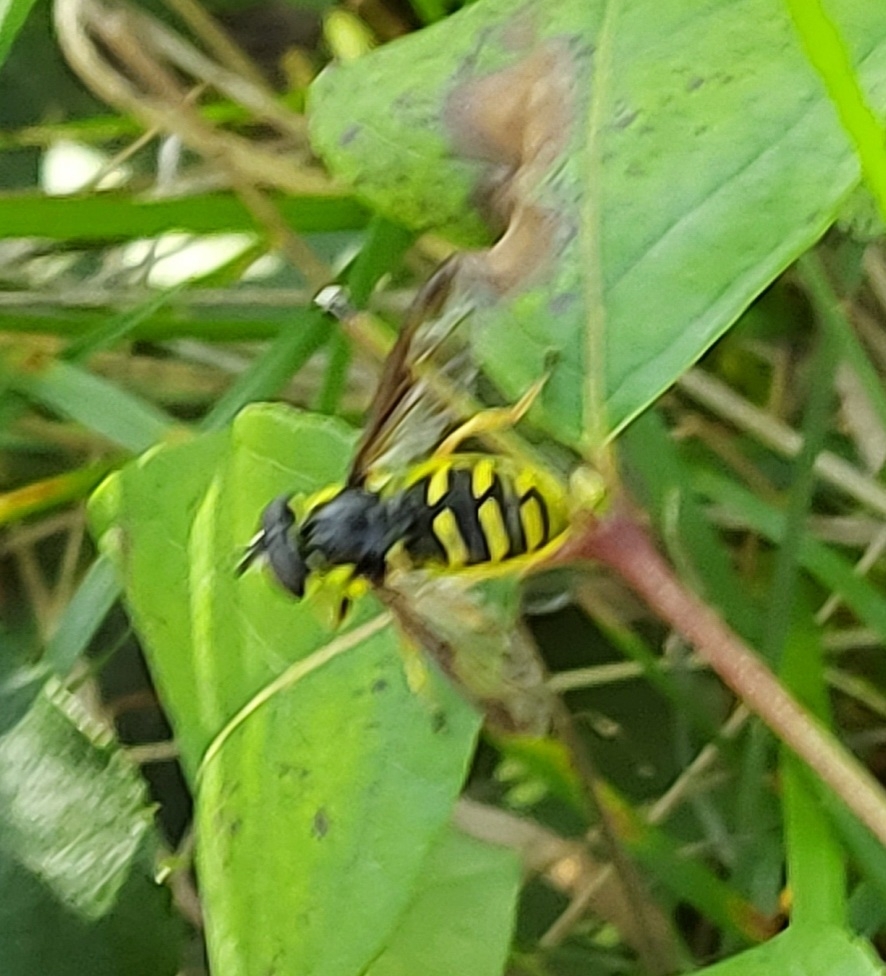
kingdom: Animalia
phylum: Arthropoda
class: Insecta
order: Diptera
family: Syrphidae
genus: Sericomyia
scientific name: Sericomyia chrysotoxoides
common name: Oblique-banded pond fly
